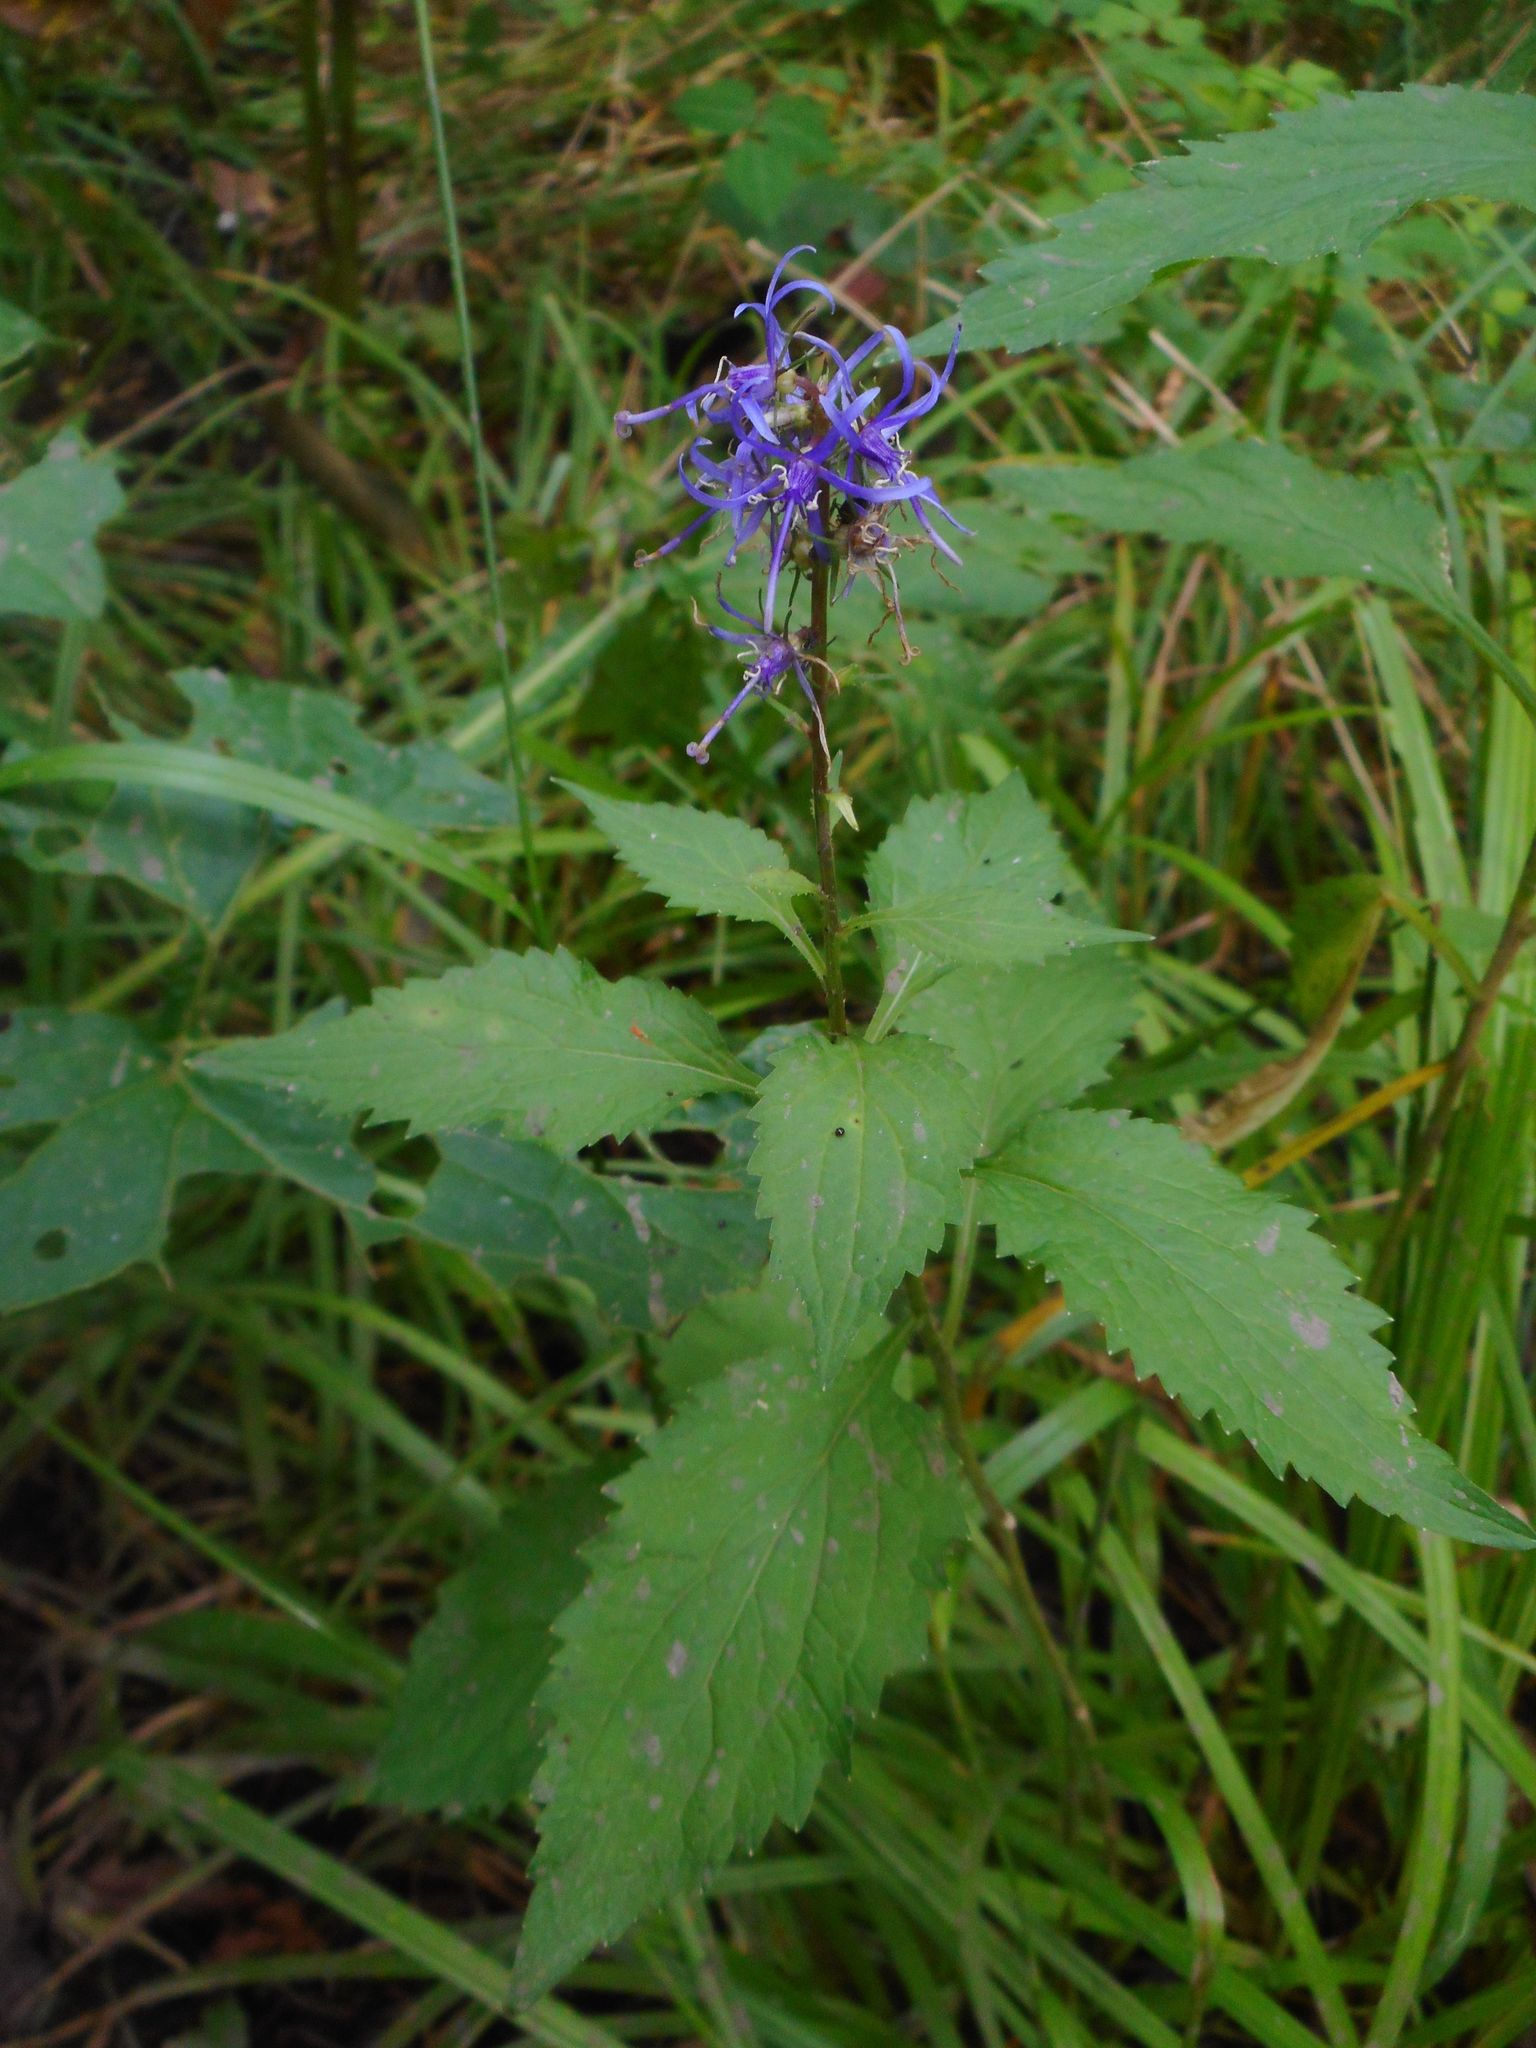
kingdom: Plantae
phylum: Tracheophyta
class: Magnoliopsida
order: Asterales
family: Campanulaceae
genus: Asyneuma
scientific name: Asyneuma japonicum
